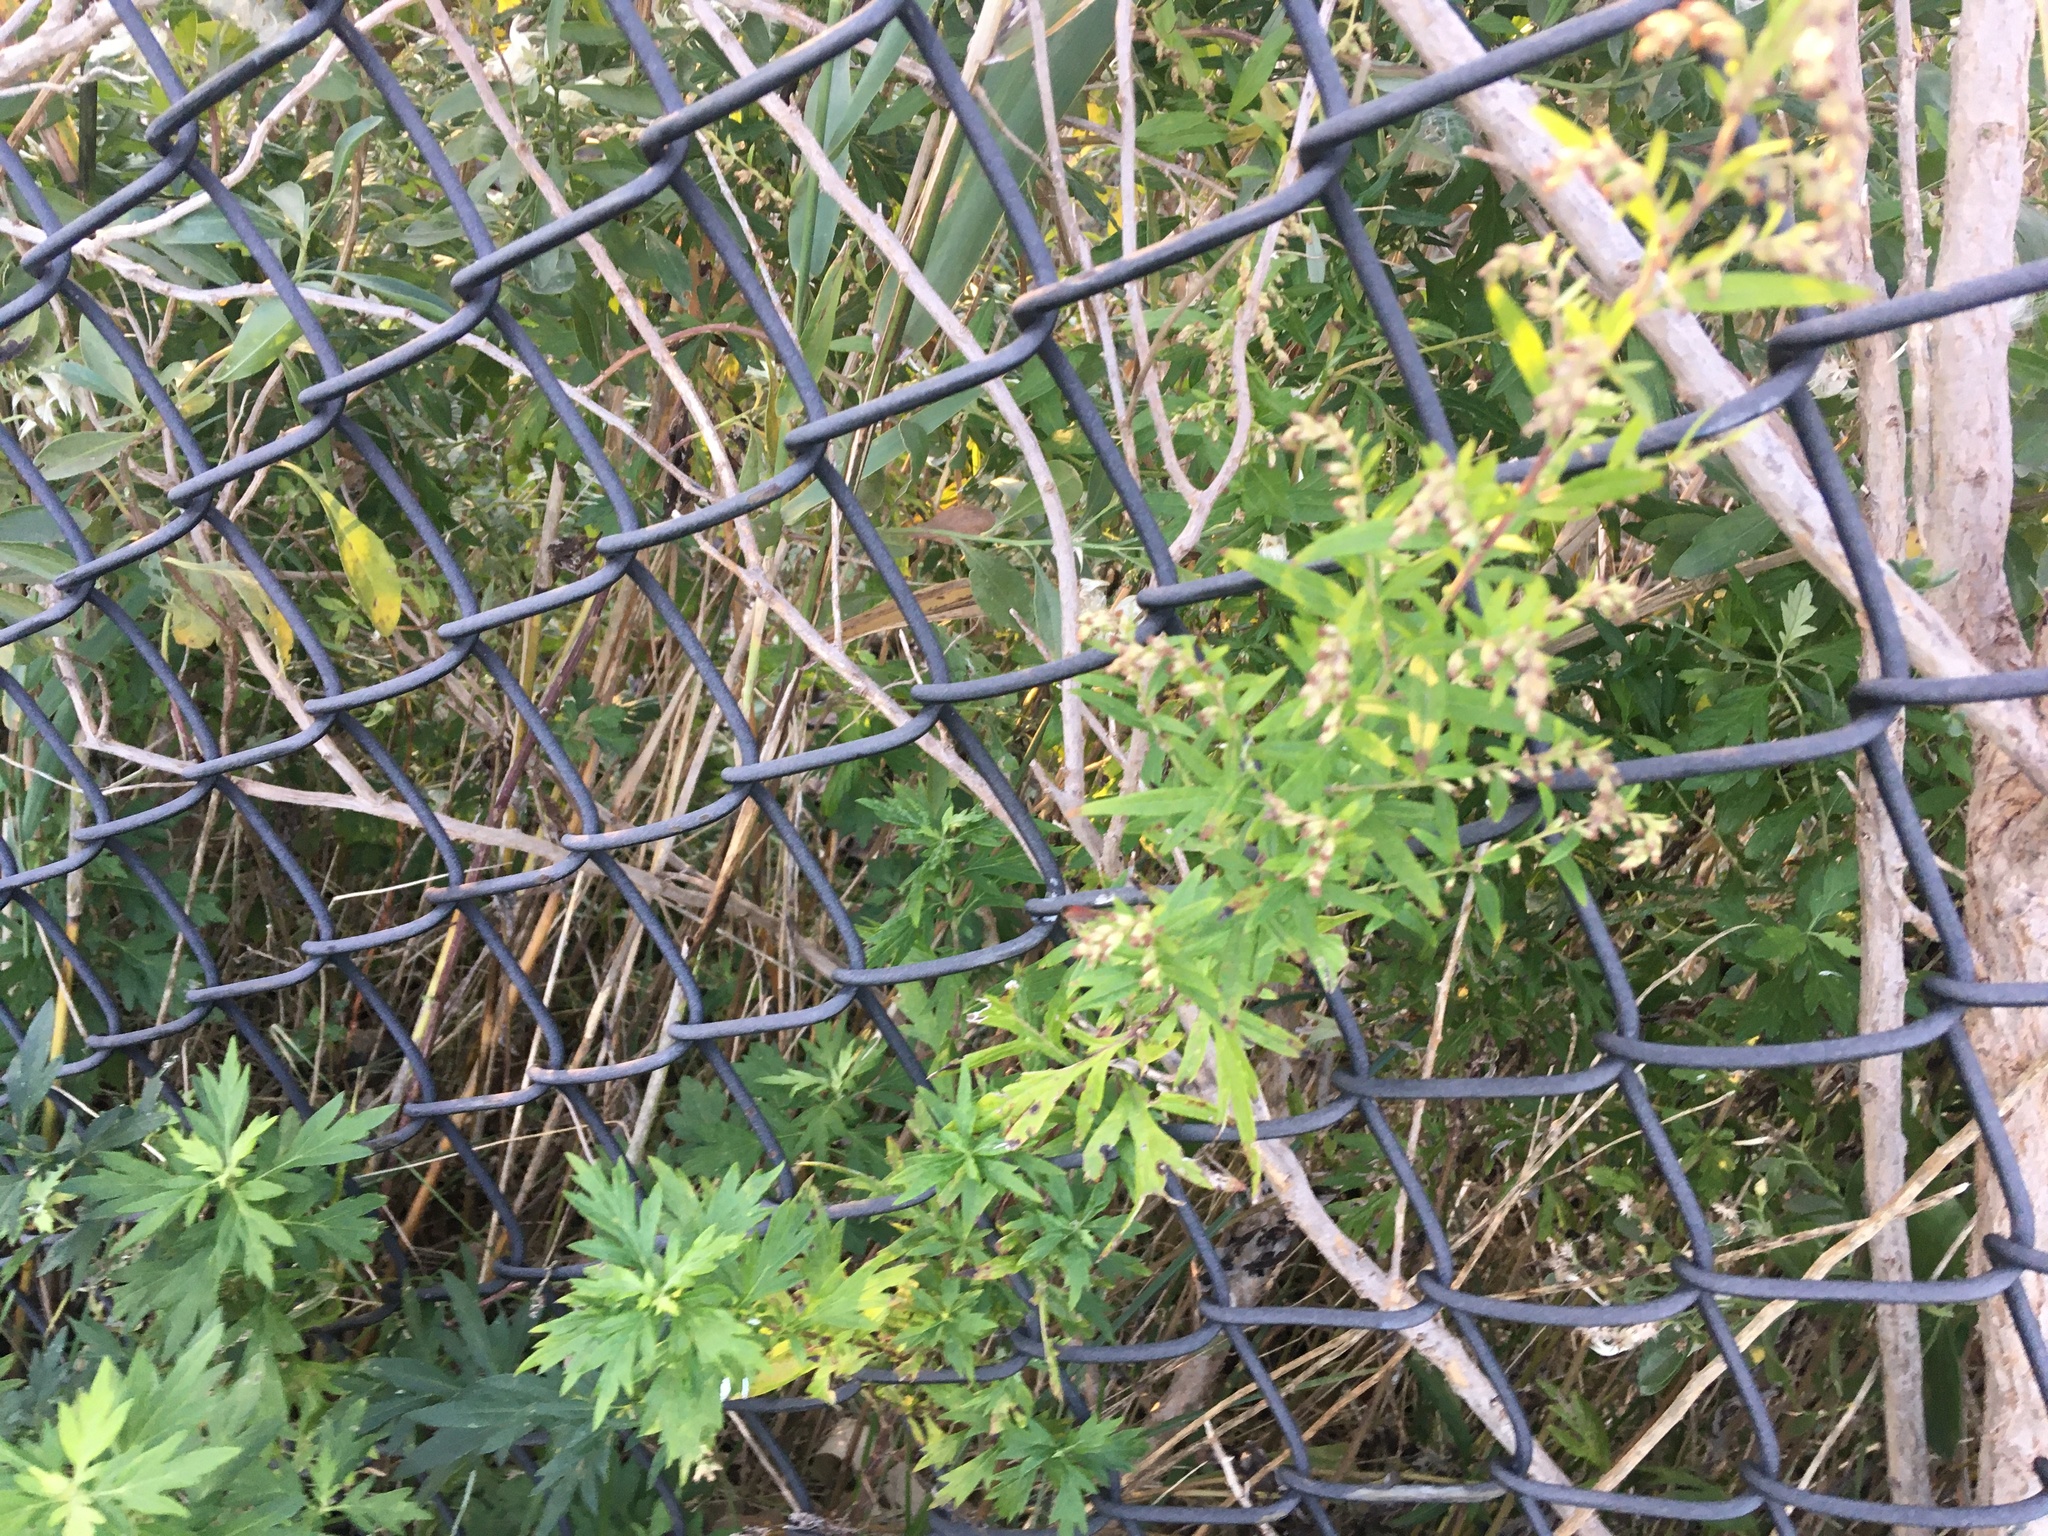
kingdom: Plantae
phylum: Tracheophyta
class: Magnoliopsida
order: Asterales
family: Asteraceae
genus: Artemisia
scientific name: Artemisia vulgaris
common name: Mugwort
